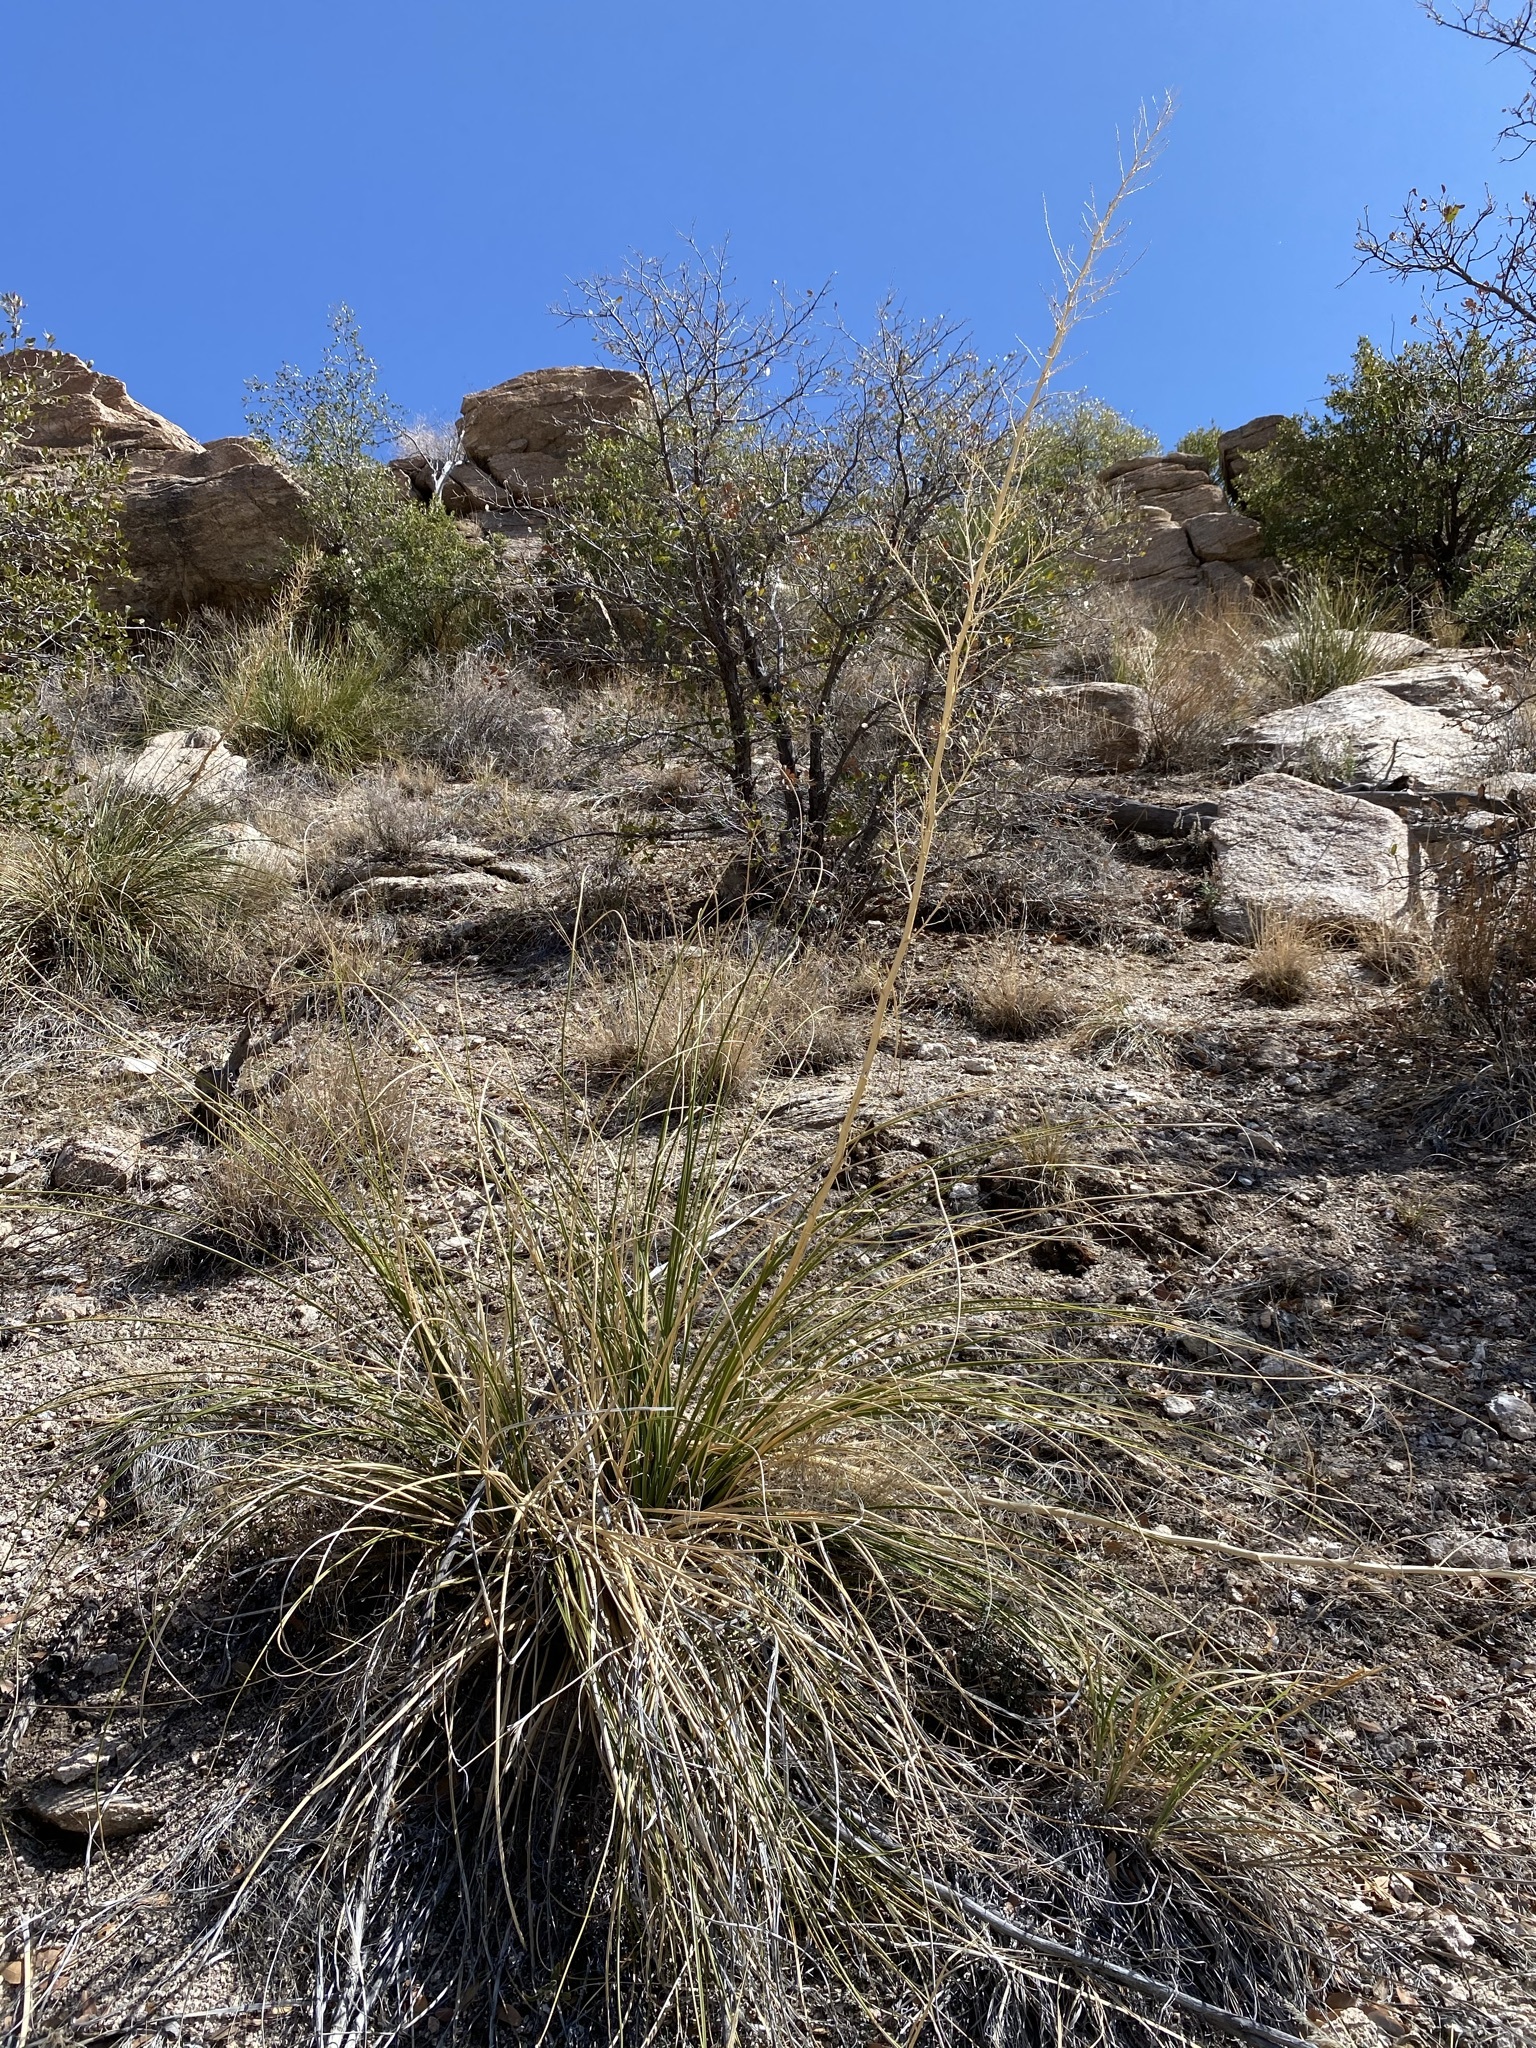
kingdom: Plantae
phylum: Tracheophyta
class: Liliopsida
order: Asparagales
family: Asparagaceae
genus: Nolina
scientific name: Nolina microcarpa
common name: Bear-grass
